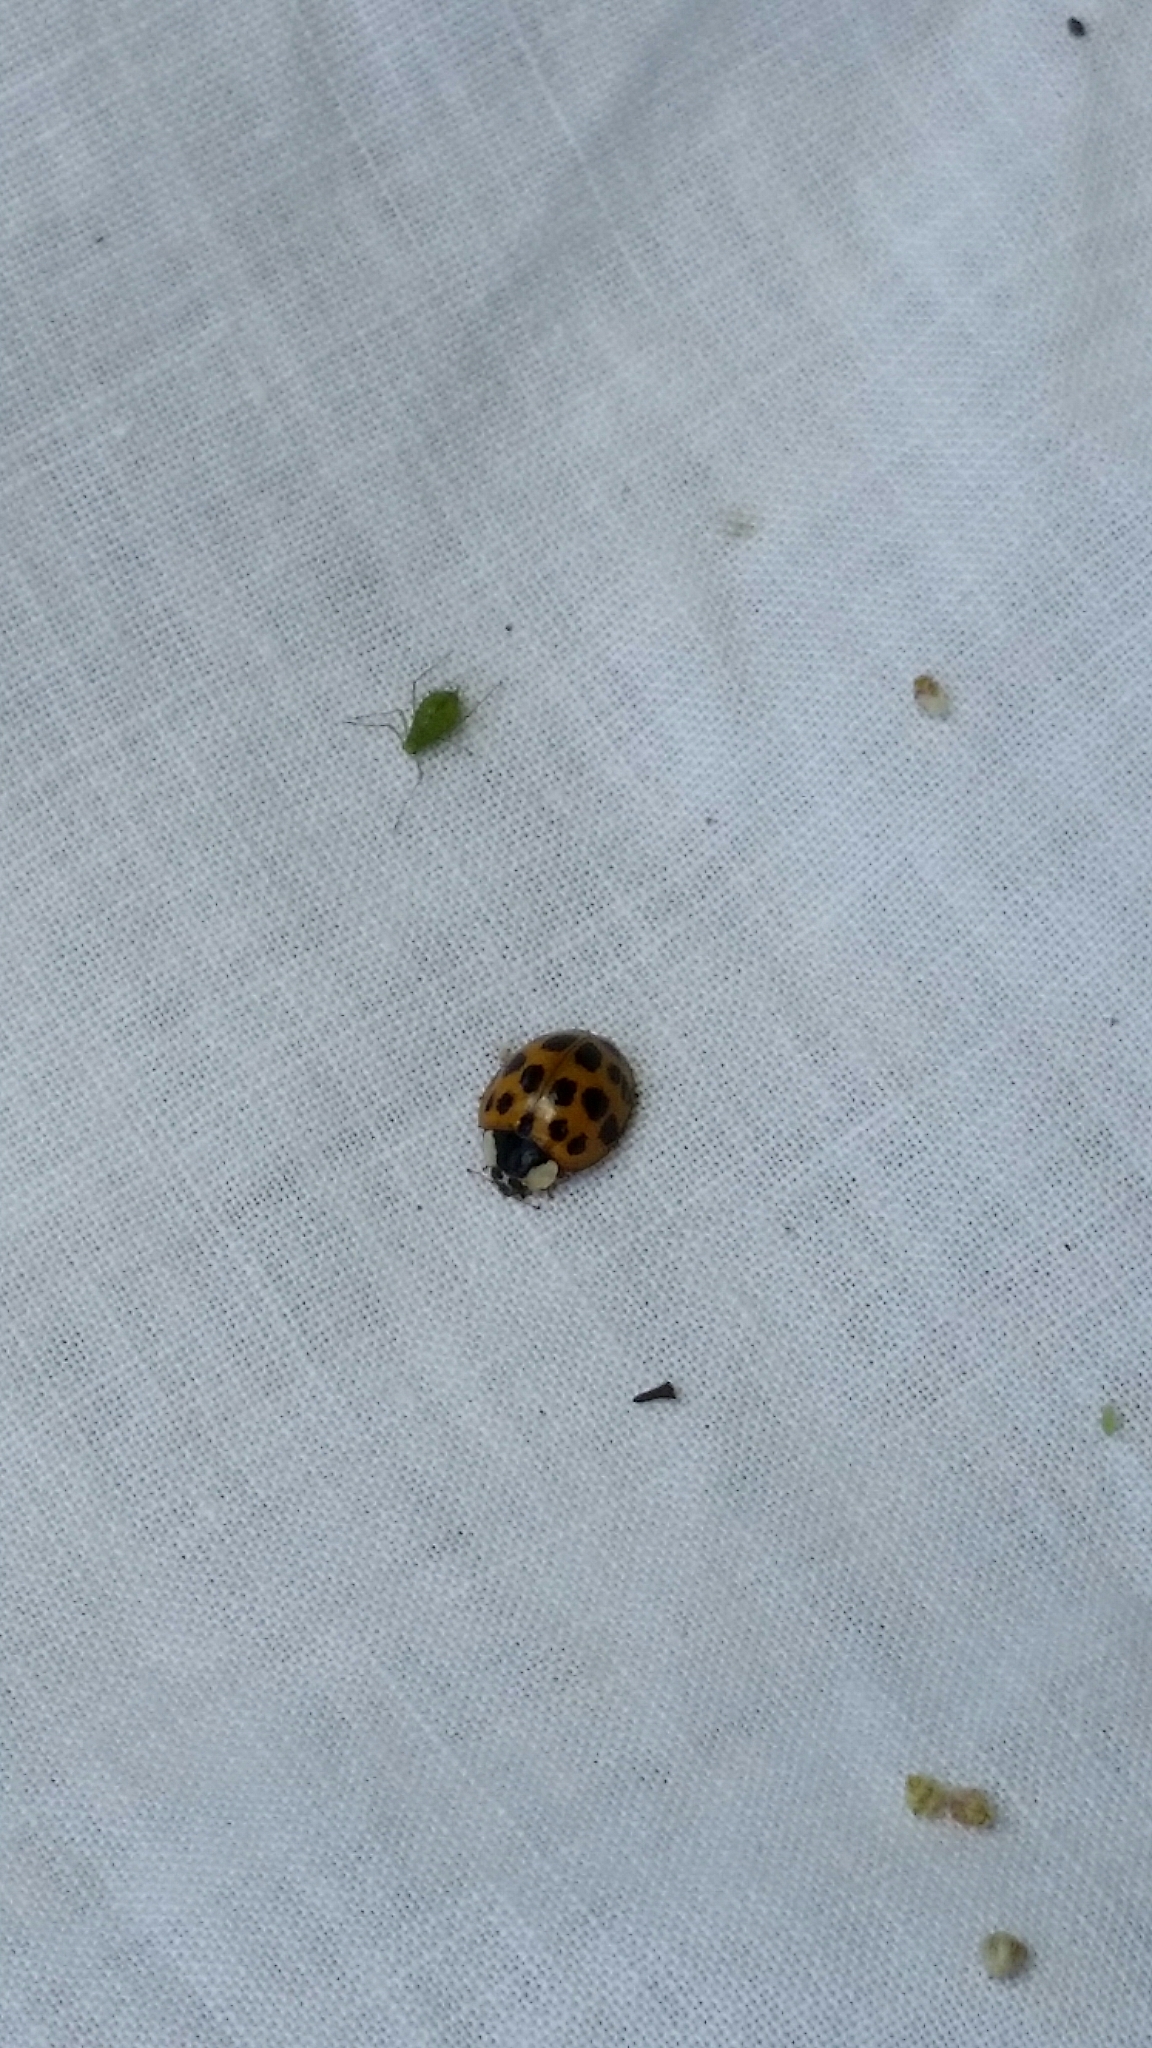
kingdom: Animalia
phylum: Arthropoda
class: Insecta
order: Coleoptera
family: Coccinellidae
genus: Harmonia
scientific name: Harmonia axyridis
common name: Harlequin ladybird
